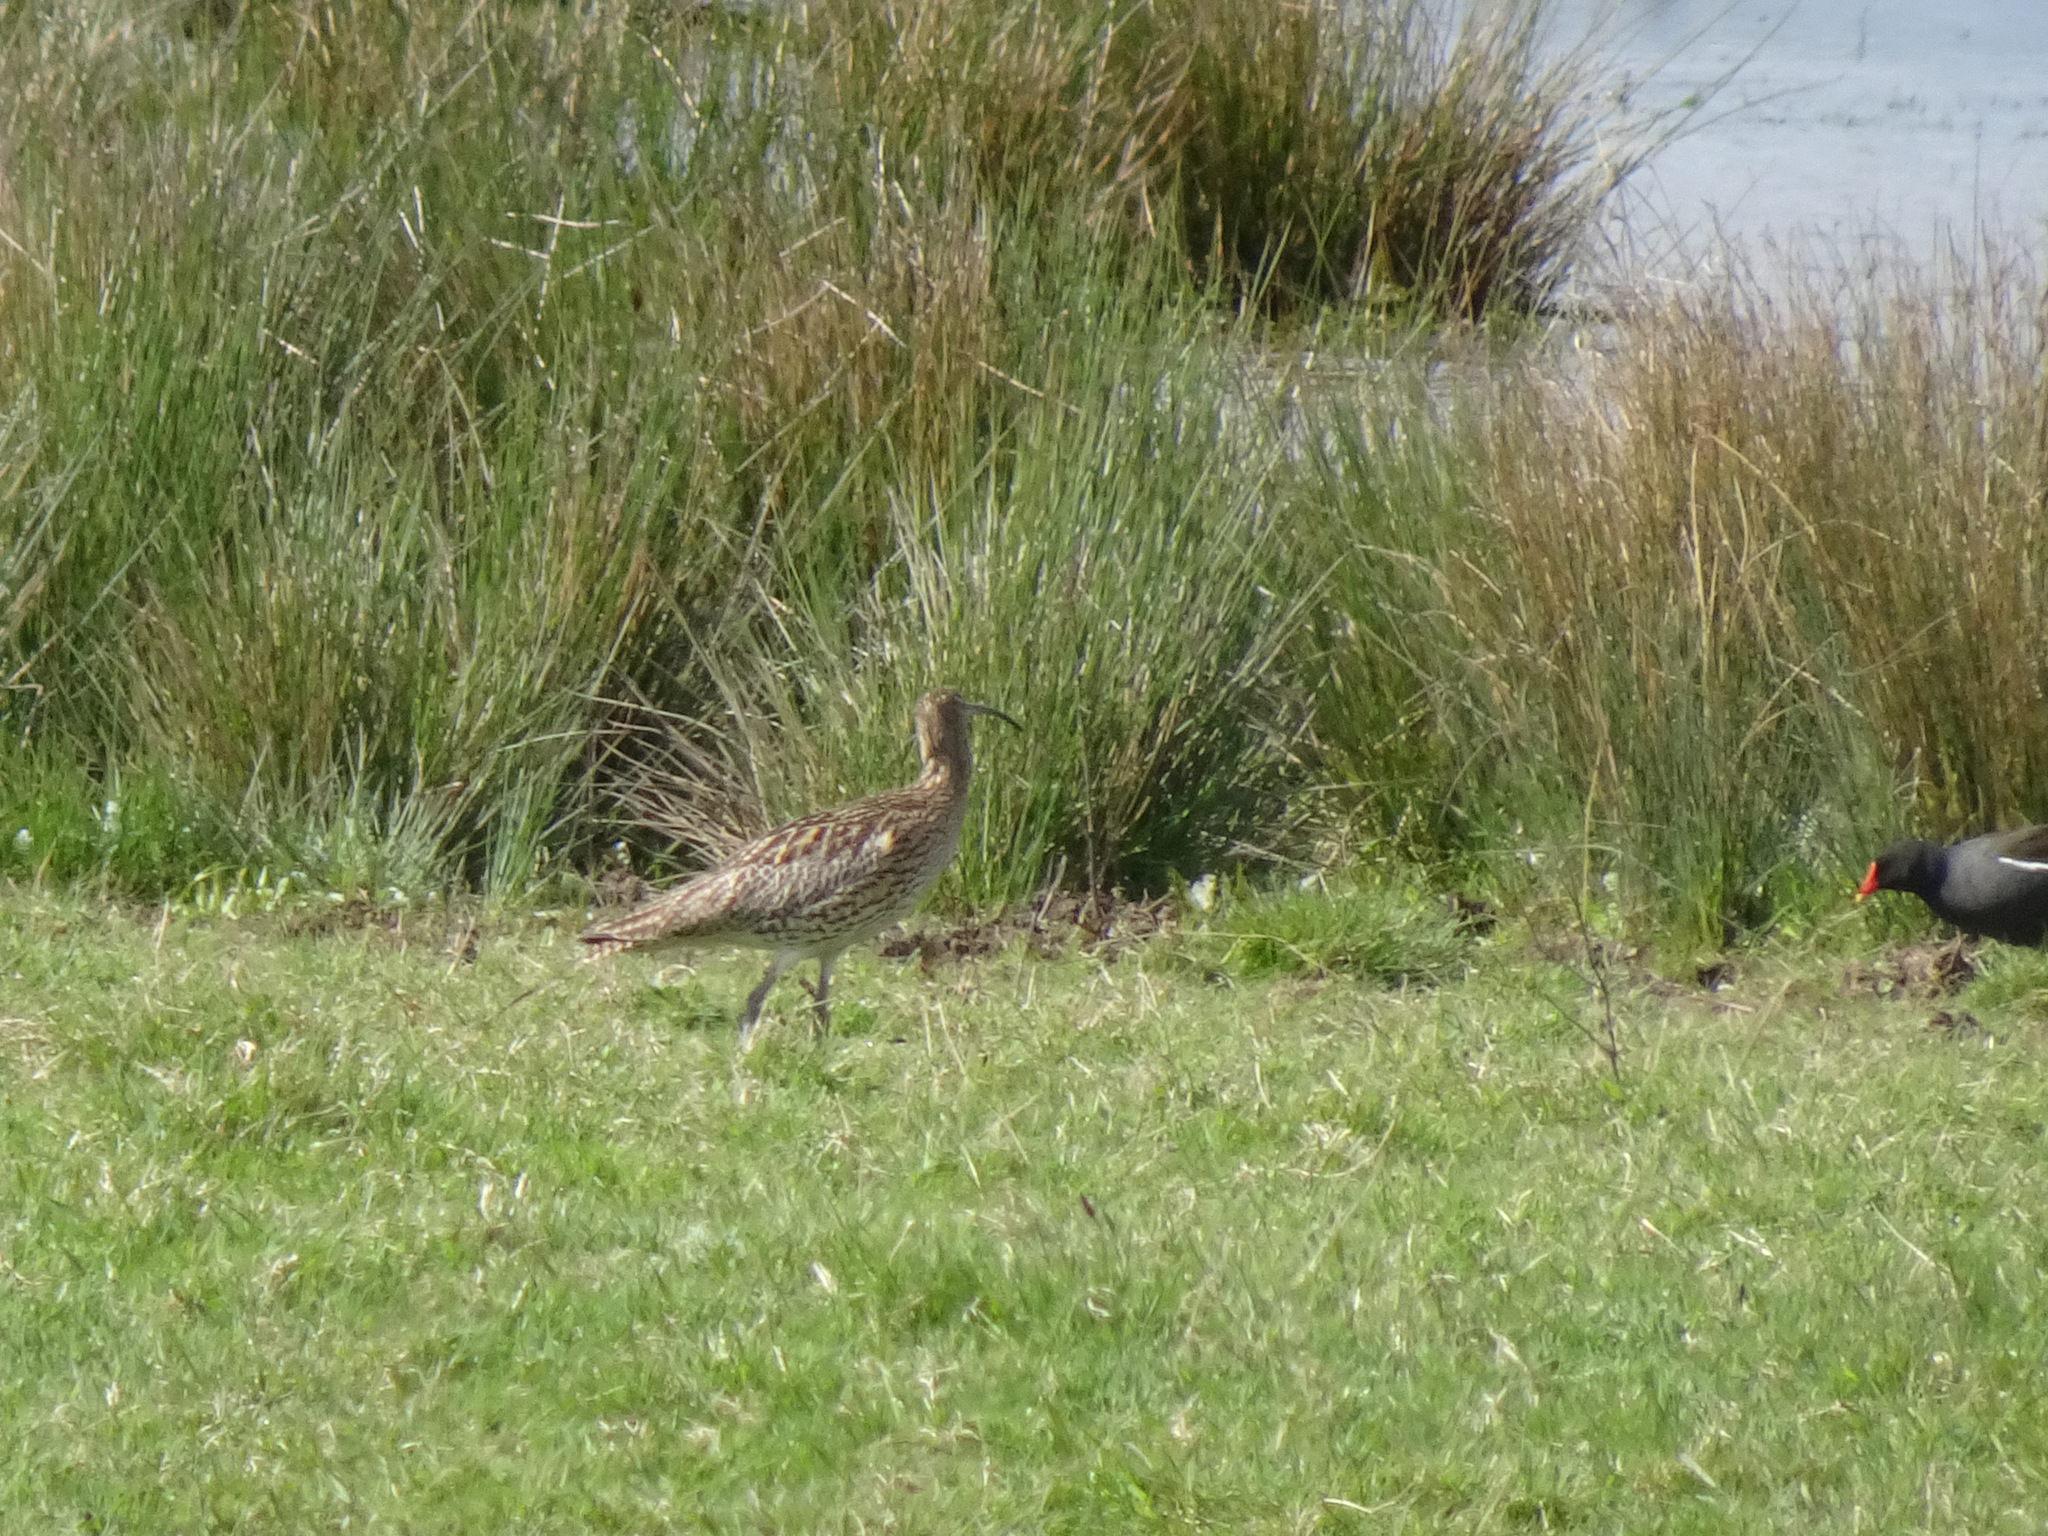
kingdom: Animalia
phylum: Chordata
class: Aves
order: Charadriiformes
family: Scolopacidae
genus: Numenius
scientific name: Numenius arquata
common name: Eurasian curlew
